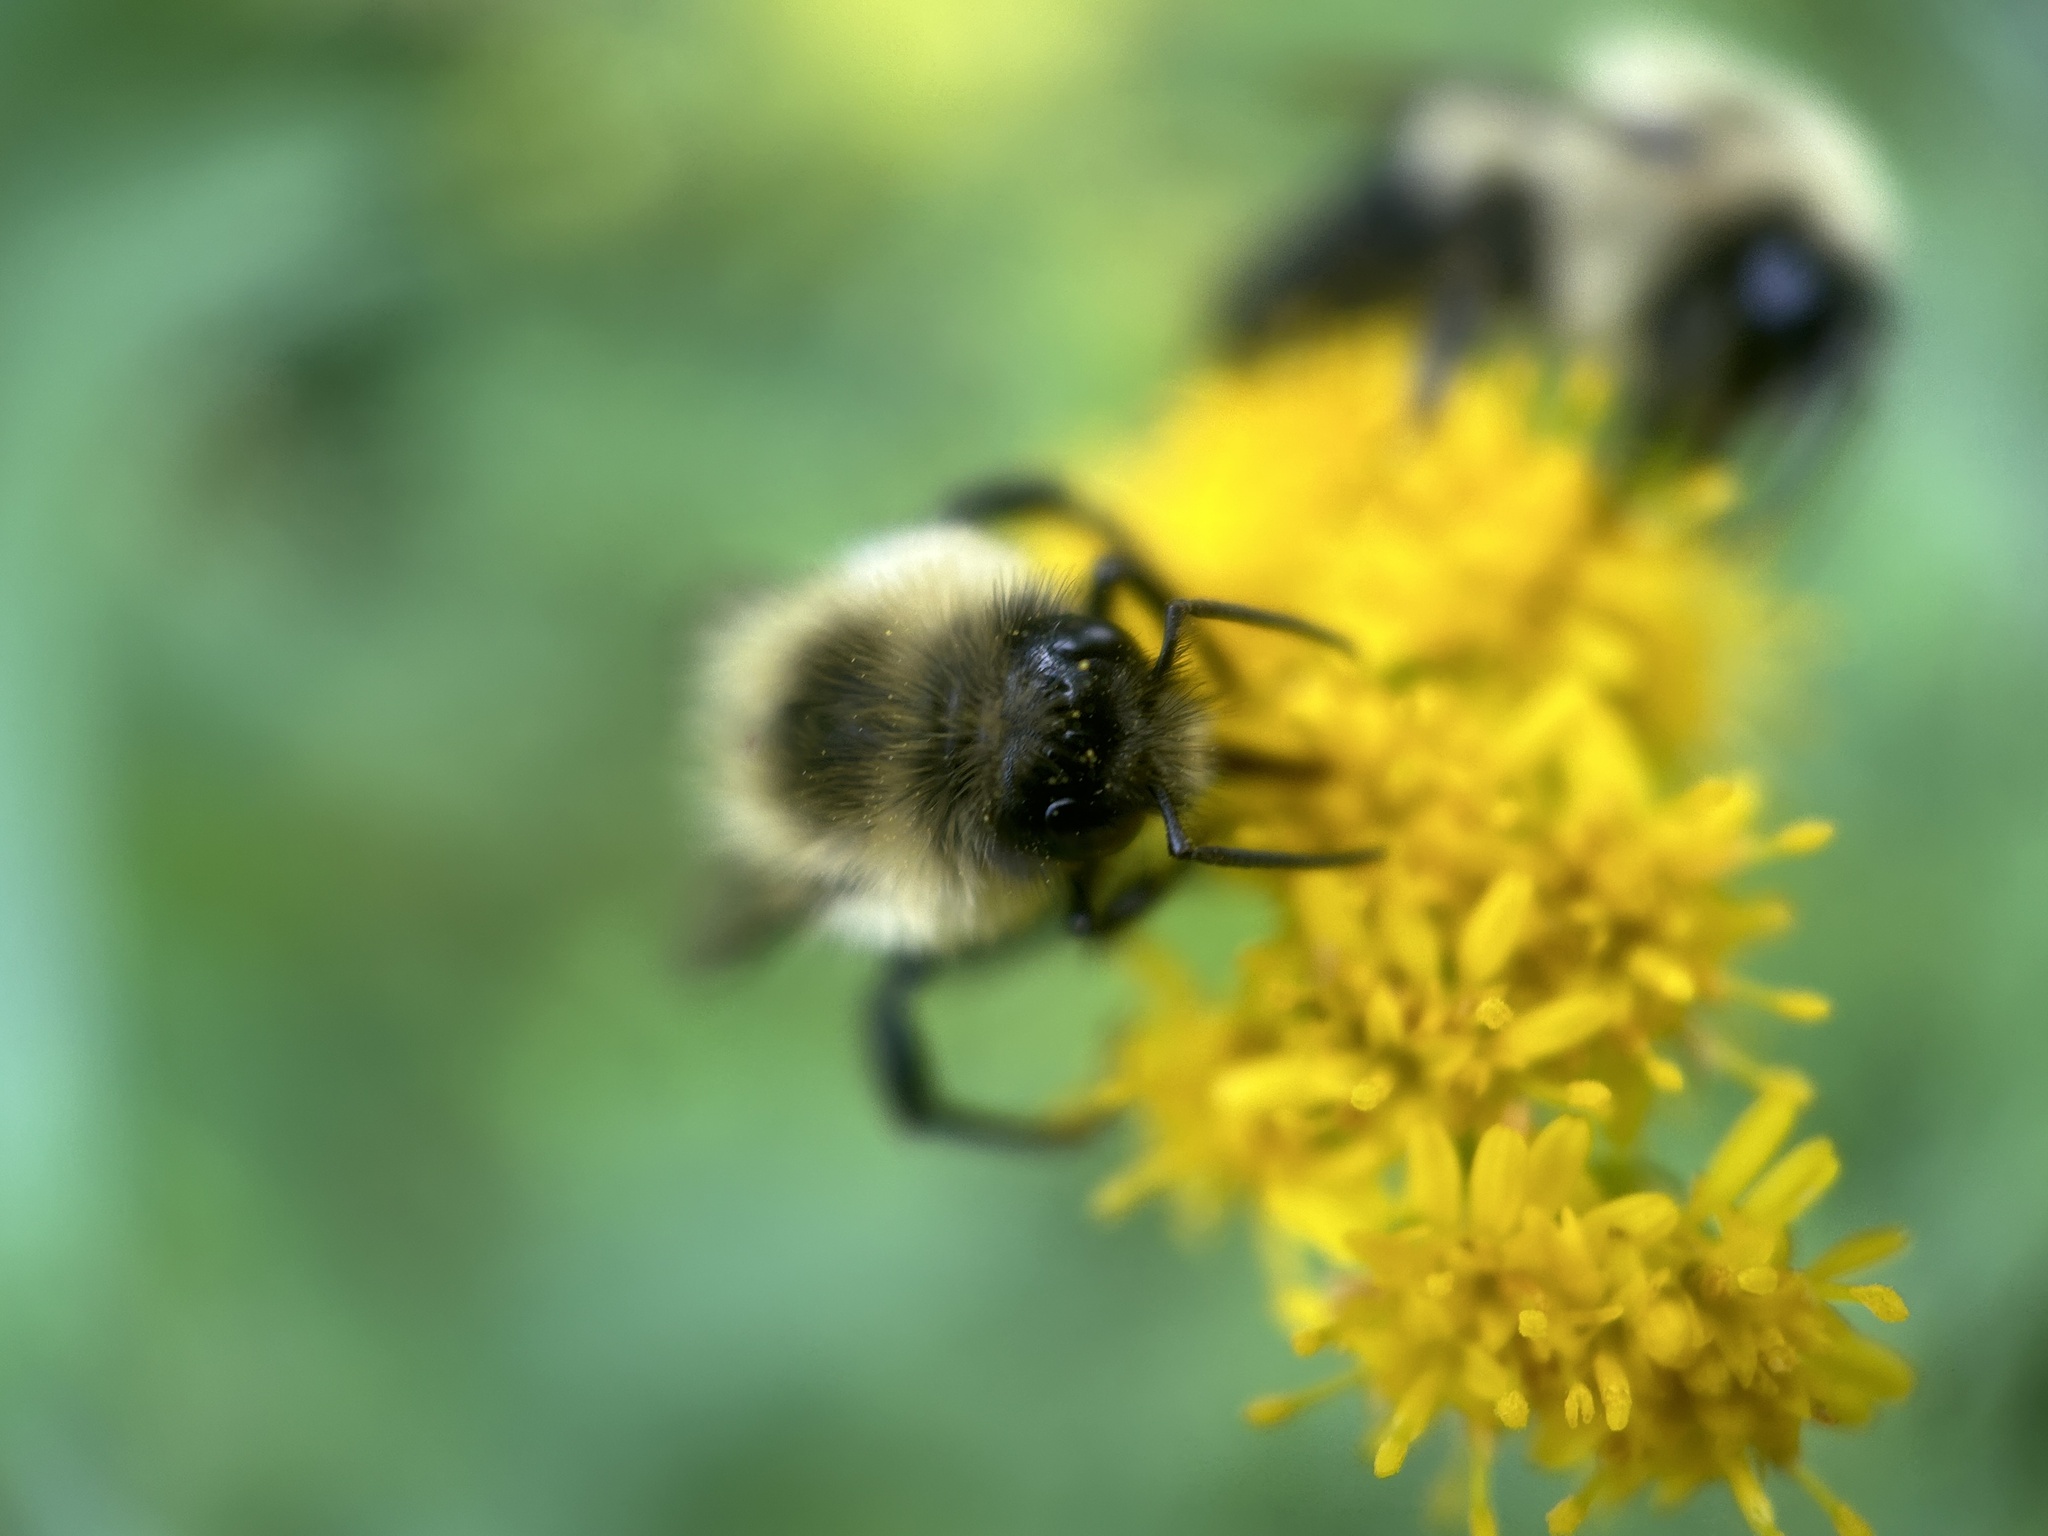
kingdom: Animalia
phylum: Arthropoda
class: Insecta
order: Hymenoptera
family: Apidae
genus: Bombus
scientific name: Bombus impatiens
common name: Common eastern bumble bee
